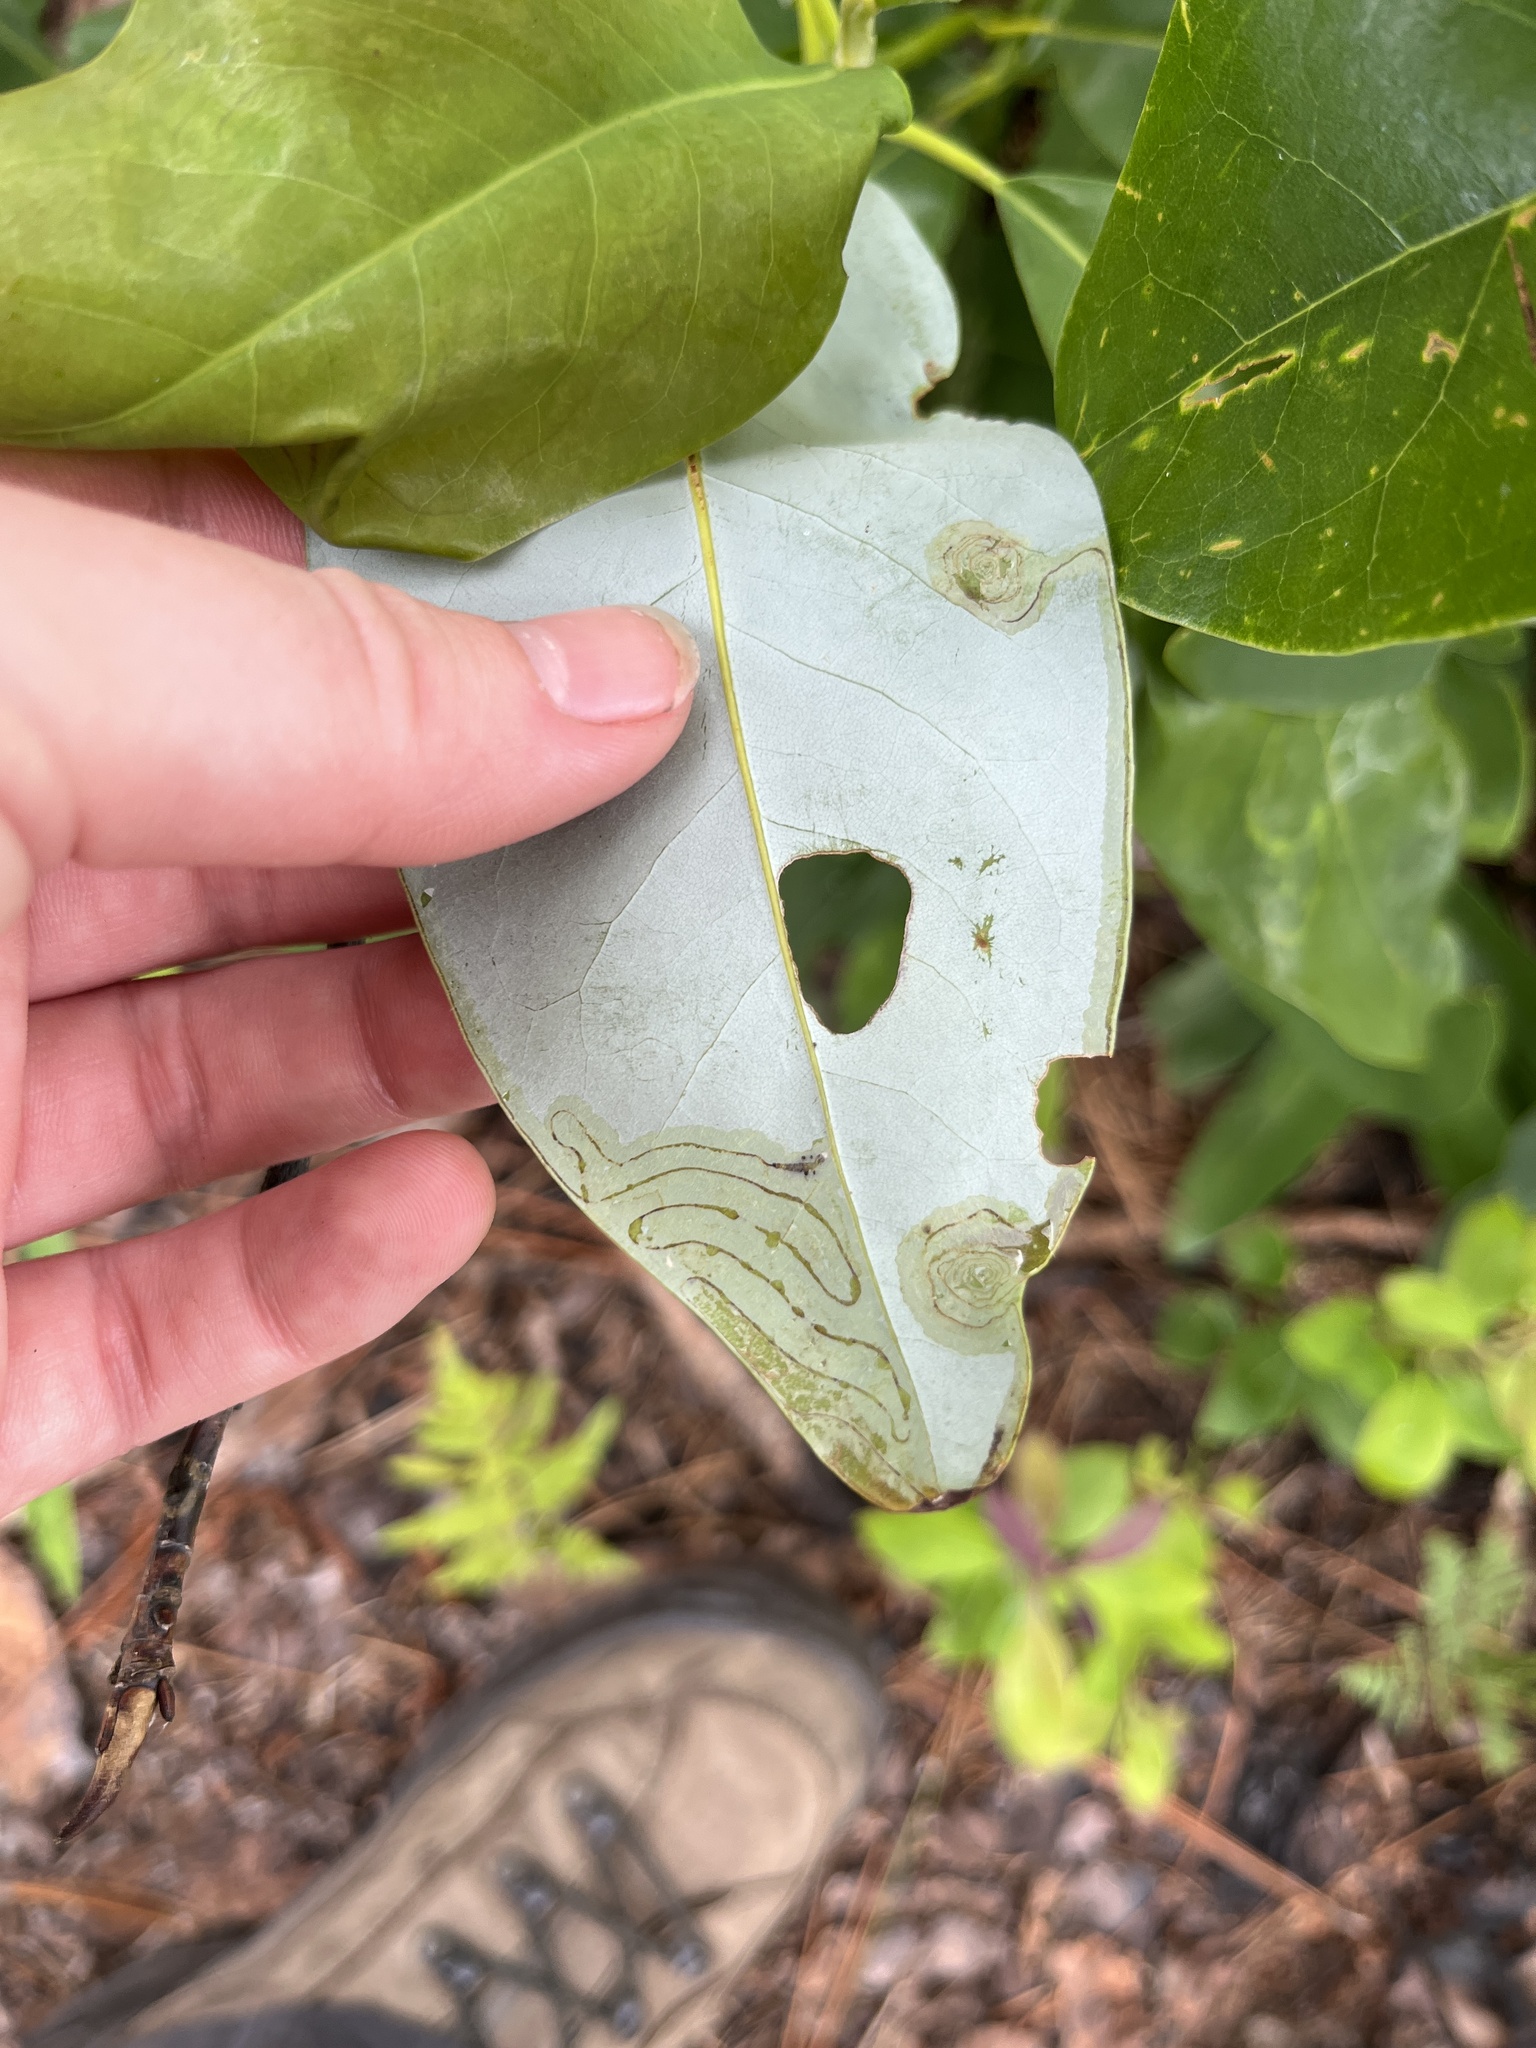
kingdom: Animalia
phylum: Arthropoda
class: Insecta
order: Lepidoptera
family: Gracillariidae
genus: Phyllocnistis
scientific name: Phyllocnistis liriodendronella
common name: Tulip tree leaf miner
